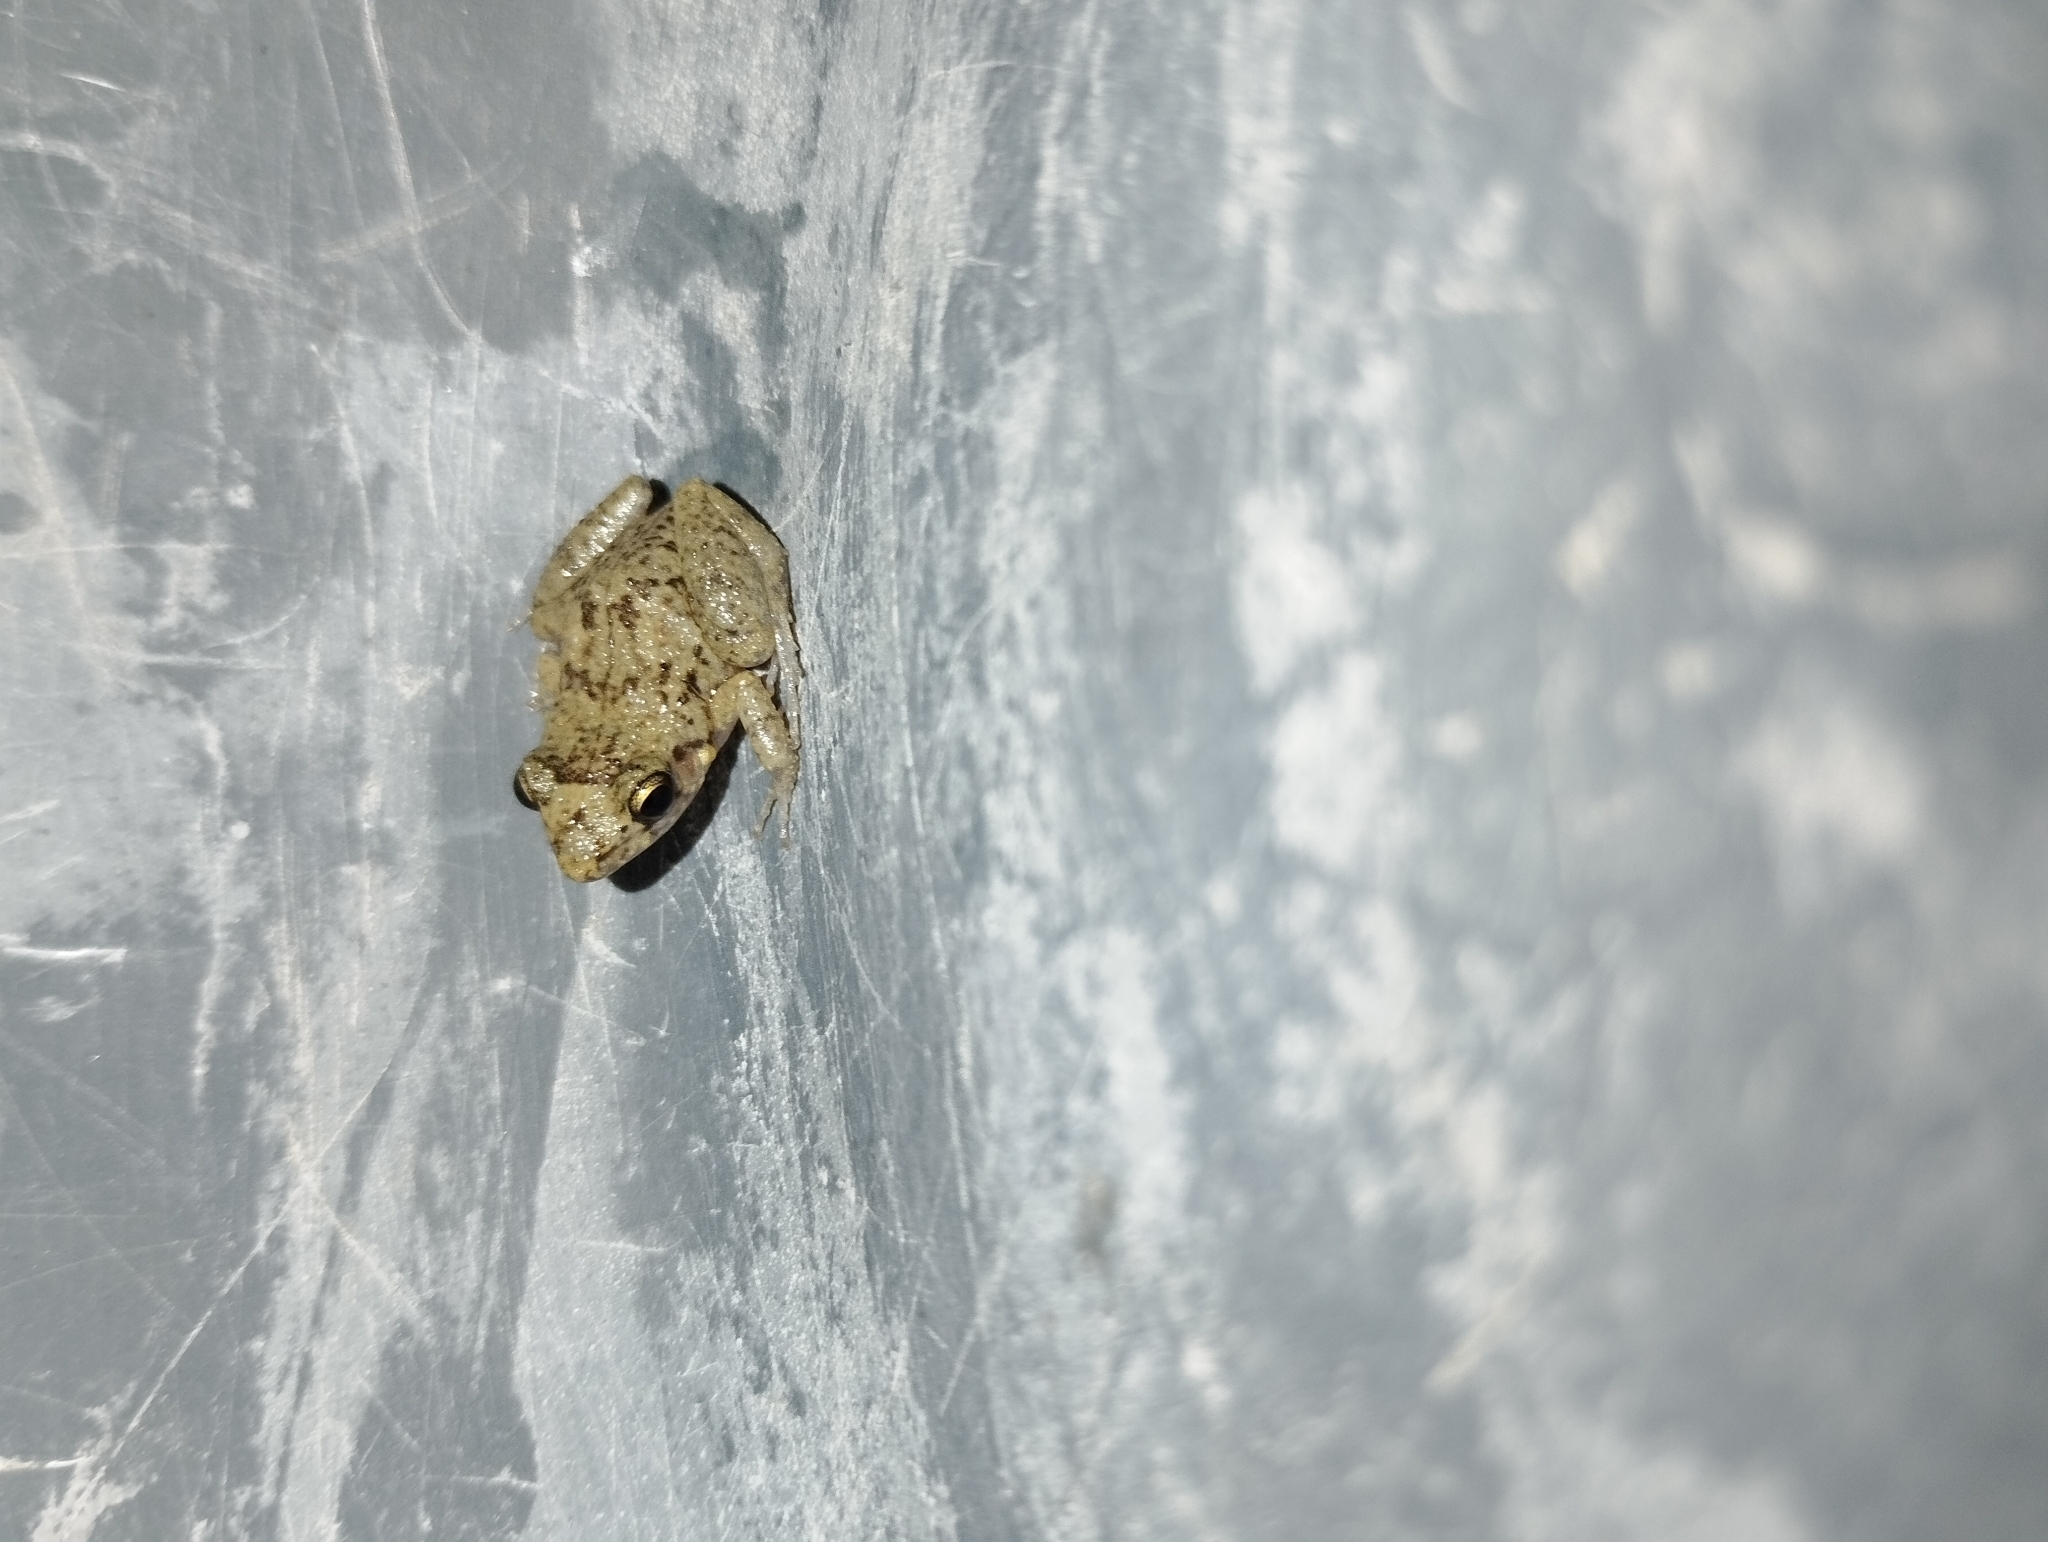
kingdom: Animalia
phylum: Chordata
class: Amphibia
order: Anura
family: Eleutherodactylidae
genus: Eleutherodactylus
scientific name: Eleutherodactylus planirostris
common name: Greenhouse frog
